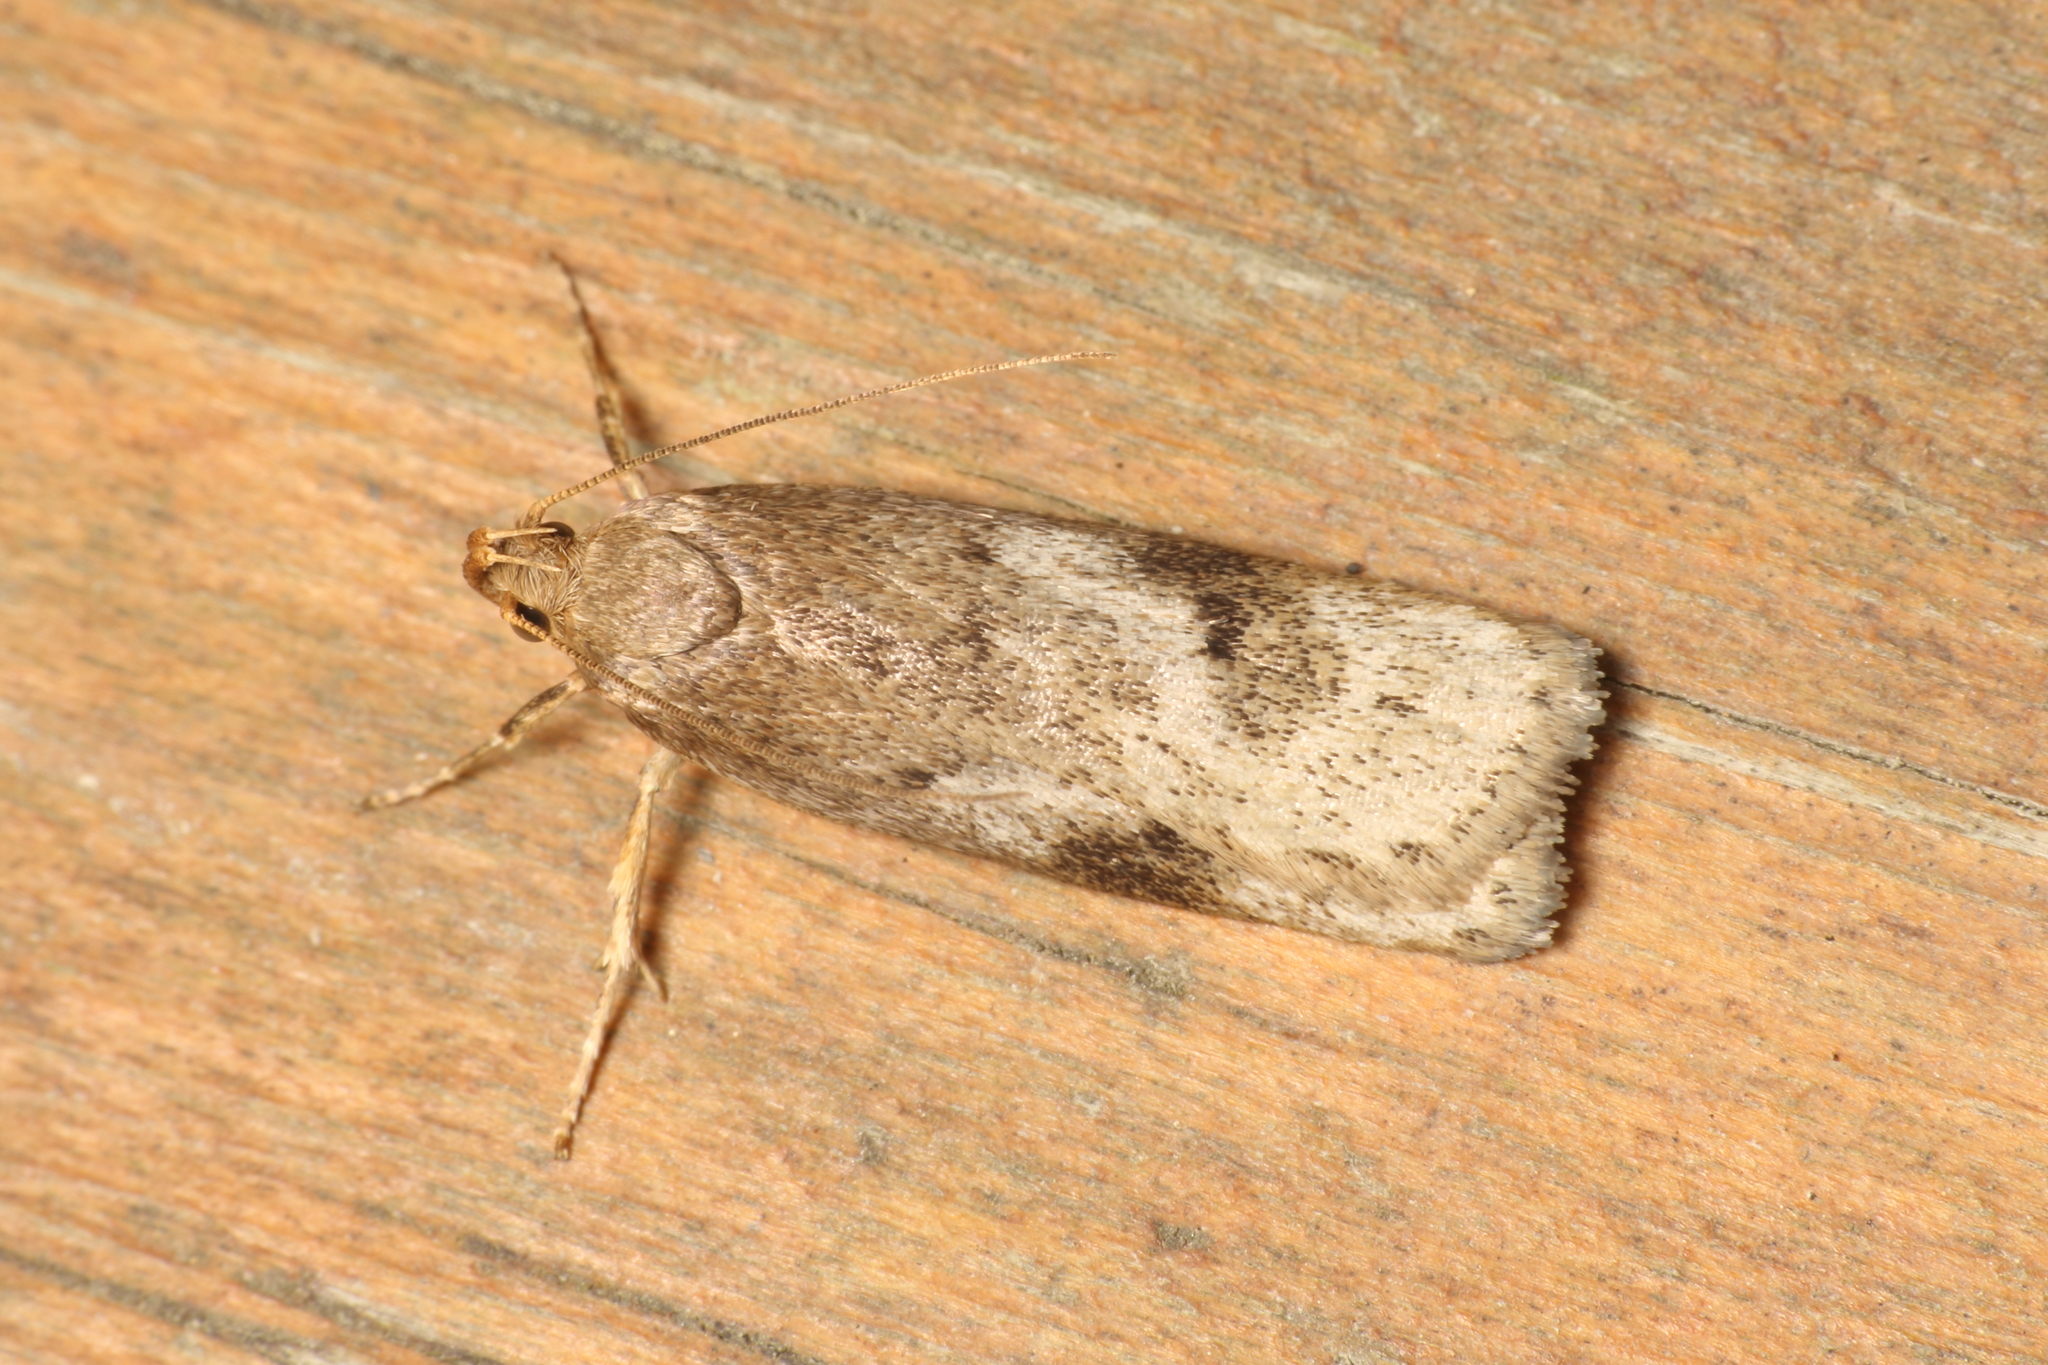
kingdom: Animalia
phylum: Arthropoda
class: Insecta
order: Lepidoptera
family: Depressariidae
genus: Phaeosaces
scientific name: Phaeosaces apocrypta
